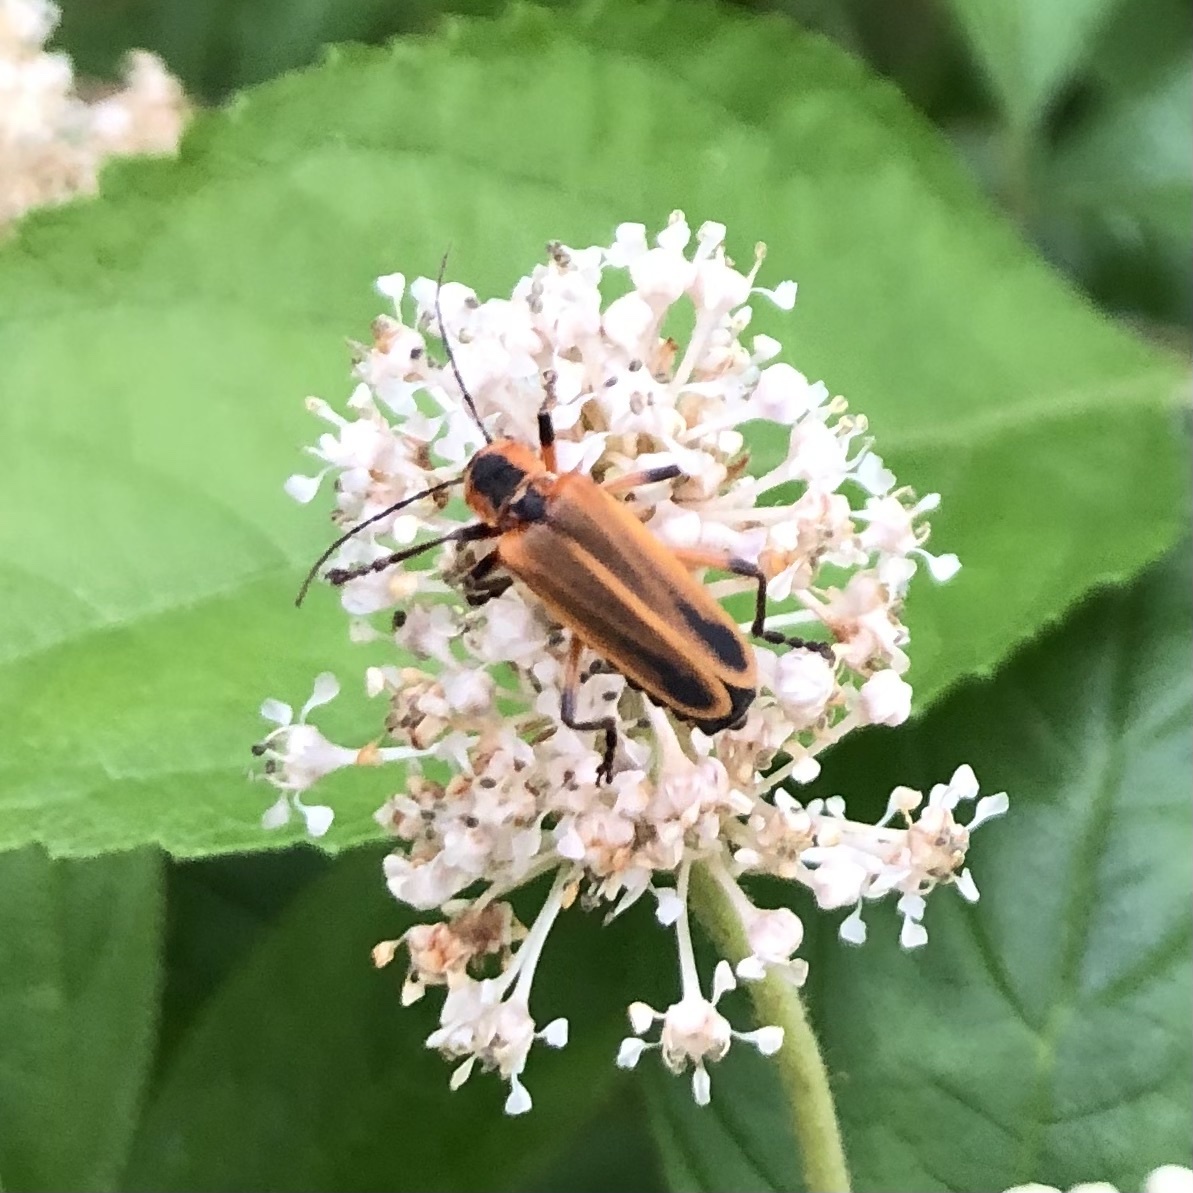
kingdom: Animalia
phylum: Arthropoda
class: Insecta
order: Coleoptera
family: Cantharidae
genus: Chauliognathus
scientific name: Chauliognathus marginatus
